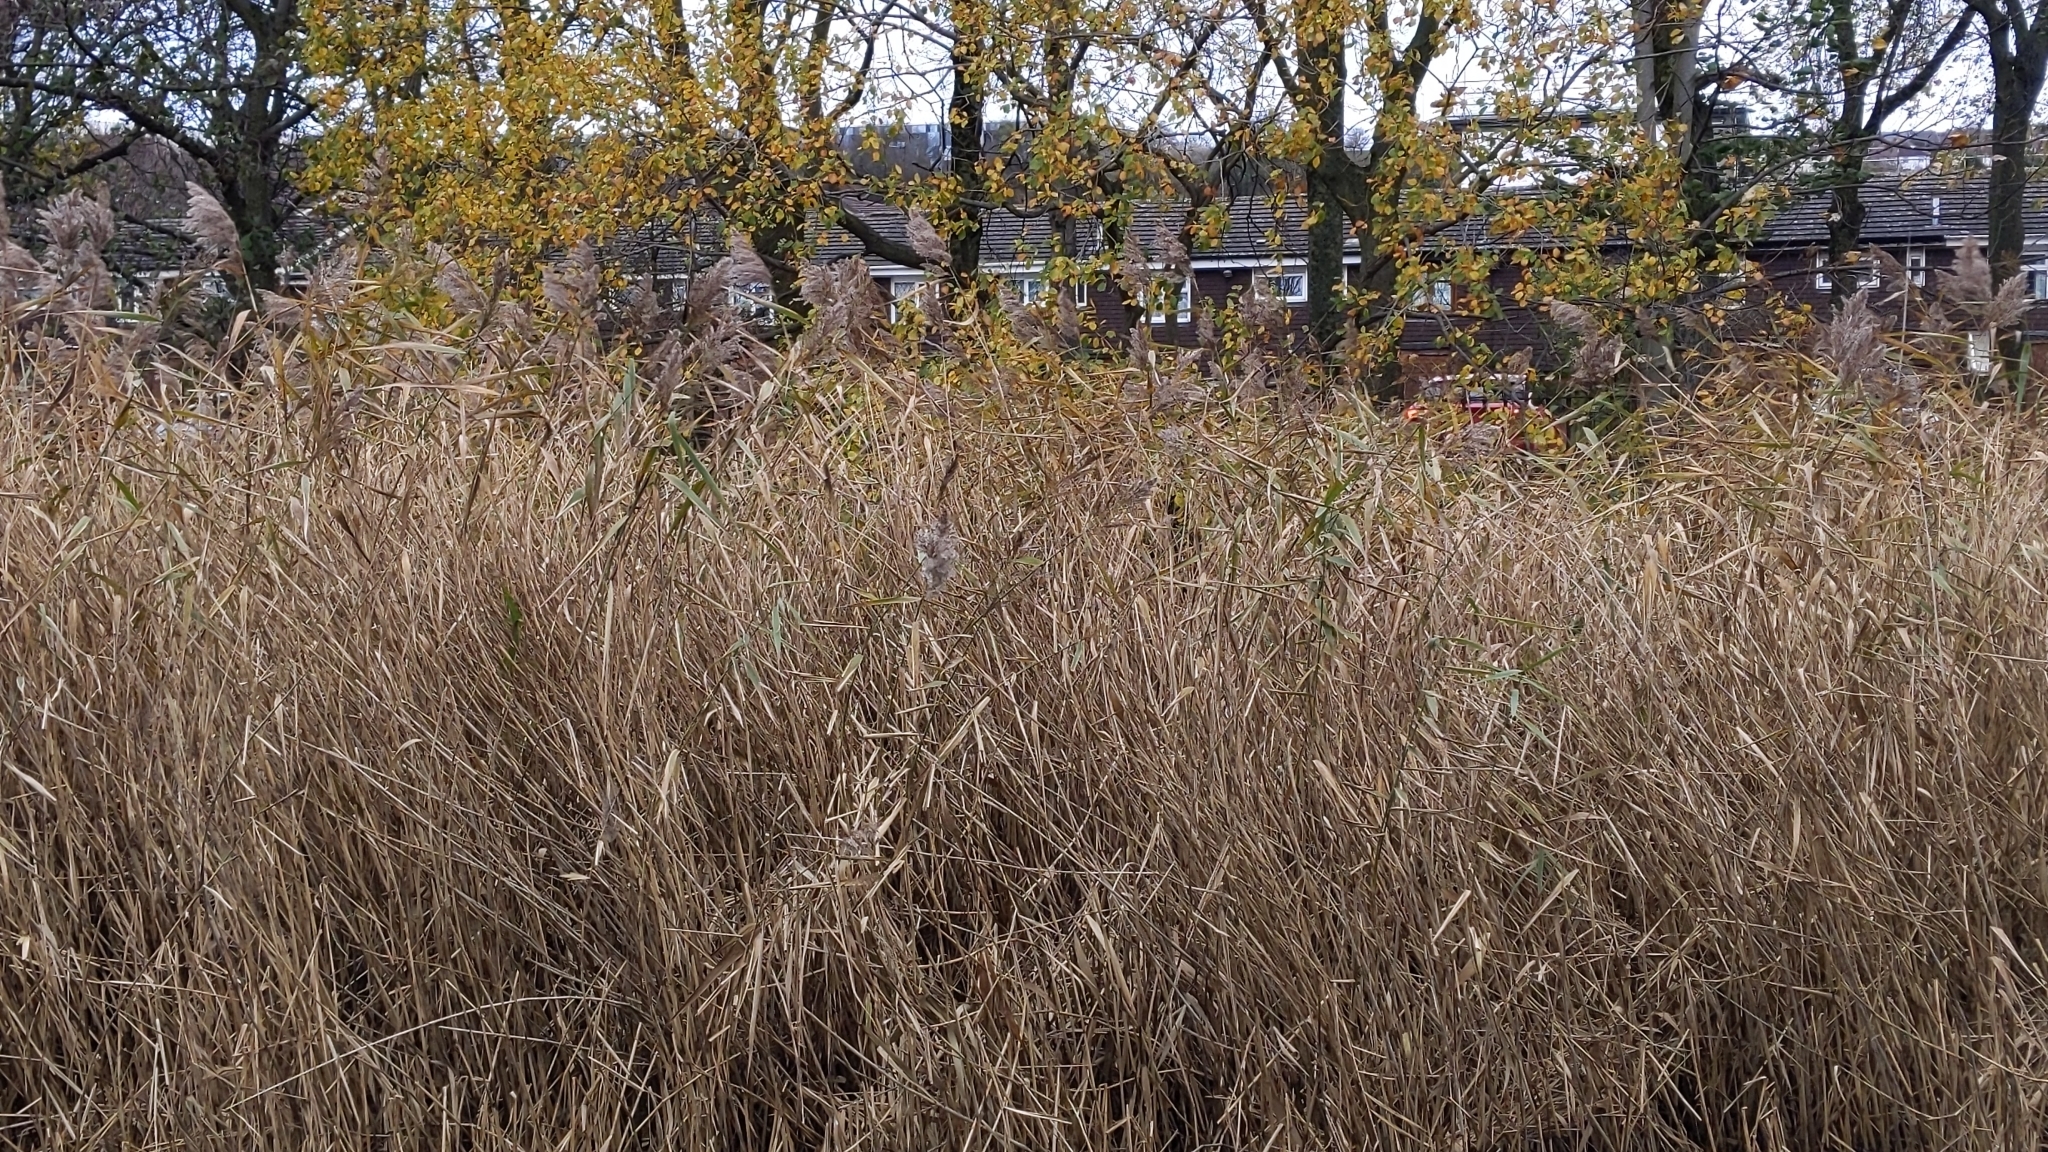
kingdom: Plantae
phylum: Tracheophyta
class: Liliopsida
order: Poales
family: Poaceae
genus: Phragmites
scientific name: Phragmites australis
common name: Common reed
